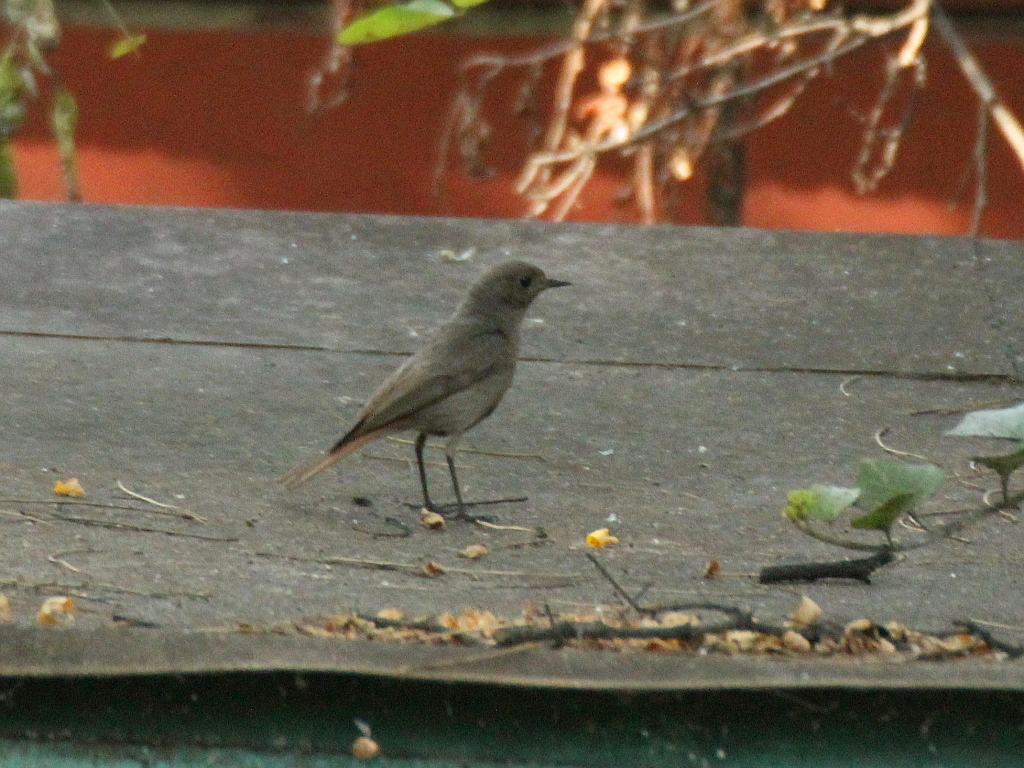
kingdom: Animalia
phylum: Chordata
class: Aves
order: Passeriformes
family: Muscicapidae
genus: Phoenicurus
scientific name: Phoenicurus ochruros
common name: Black redstart
